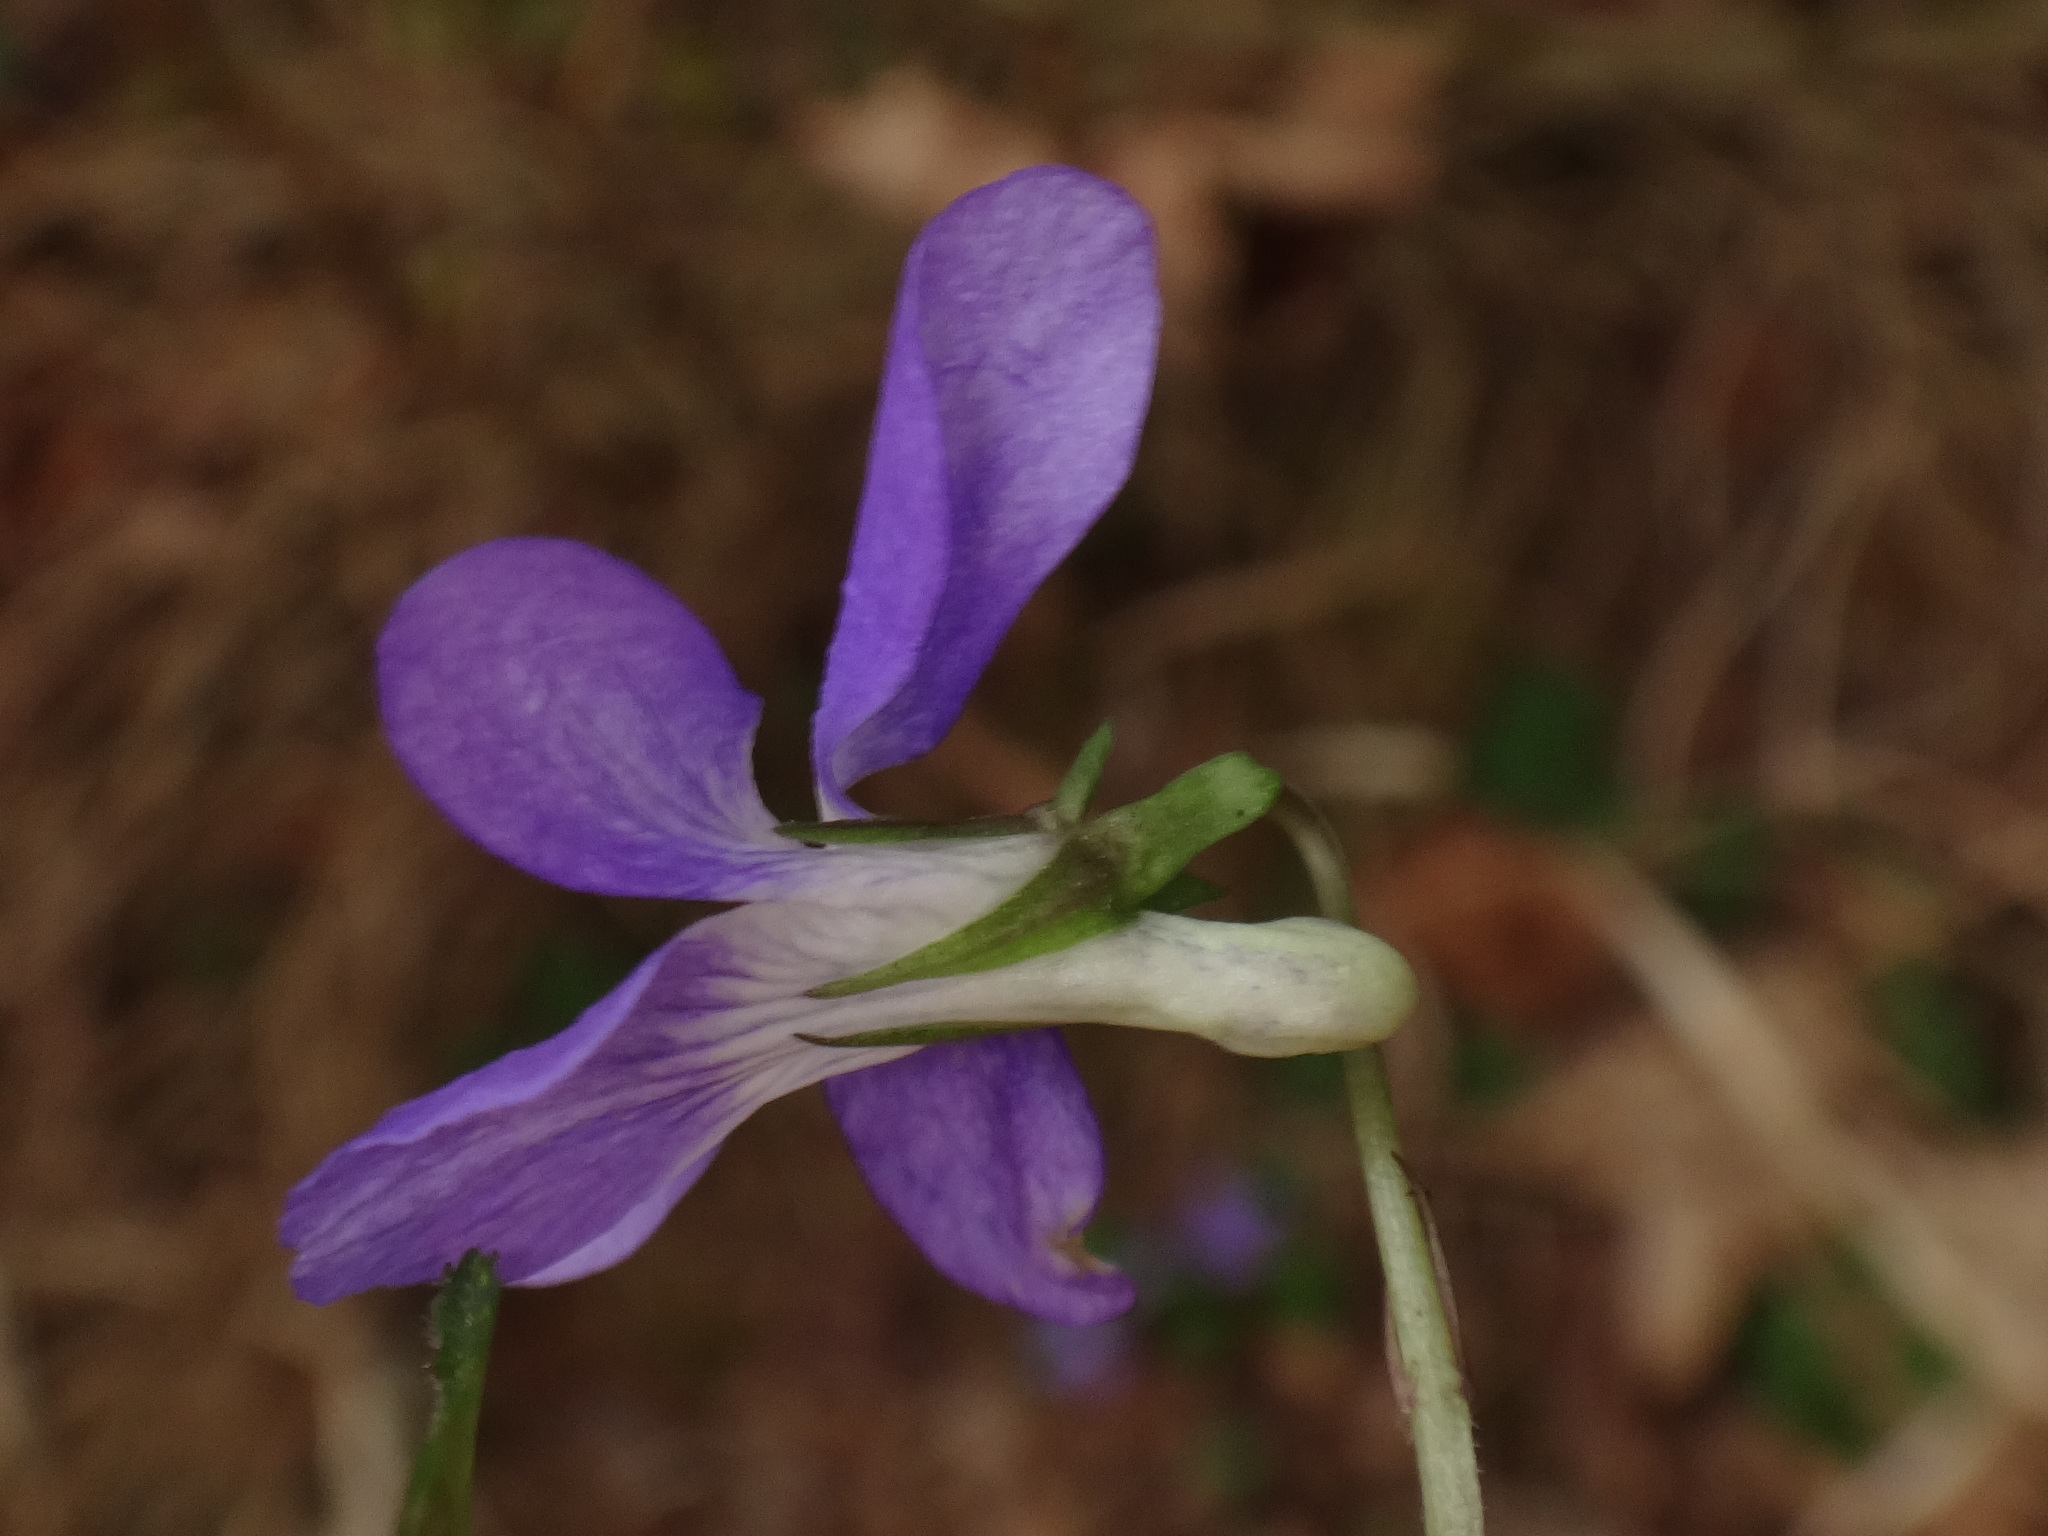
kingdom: Plantae
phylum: Tracheophyta
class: Magnoliopsida
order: Malpighiales
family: Violaceae
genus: Viola
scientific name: Viola riviniana
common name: Common dog-violet
